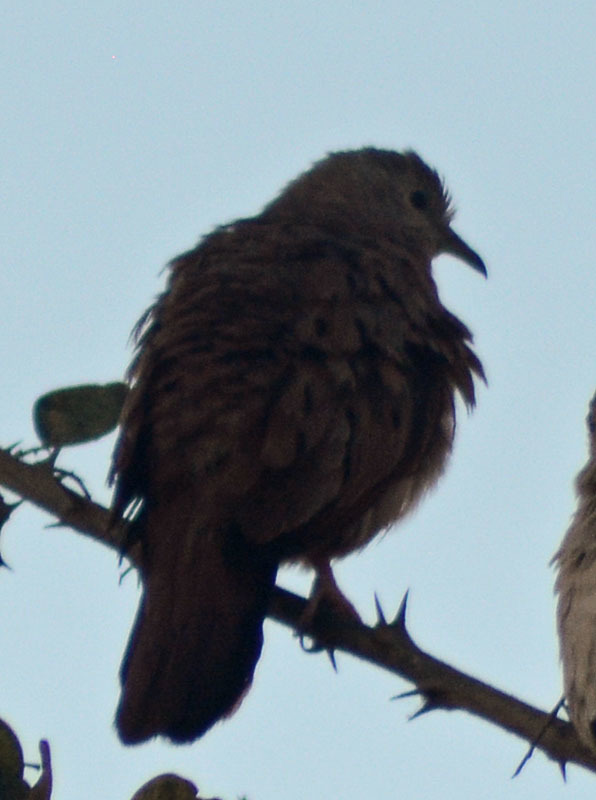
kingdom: Animalia
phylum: Chordata
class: Aves
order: Columbiformes
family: Columbidae
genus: Columbina
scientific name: Columbina talpacoti
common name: Ruddy ground dove
